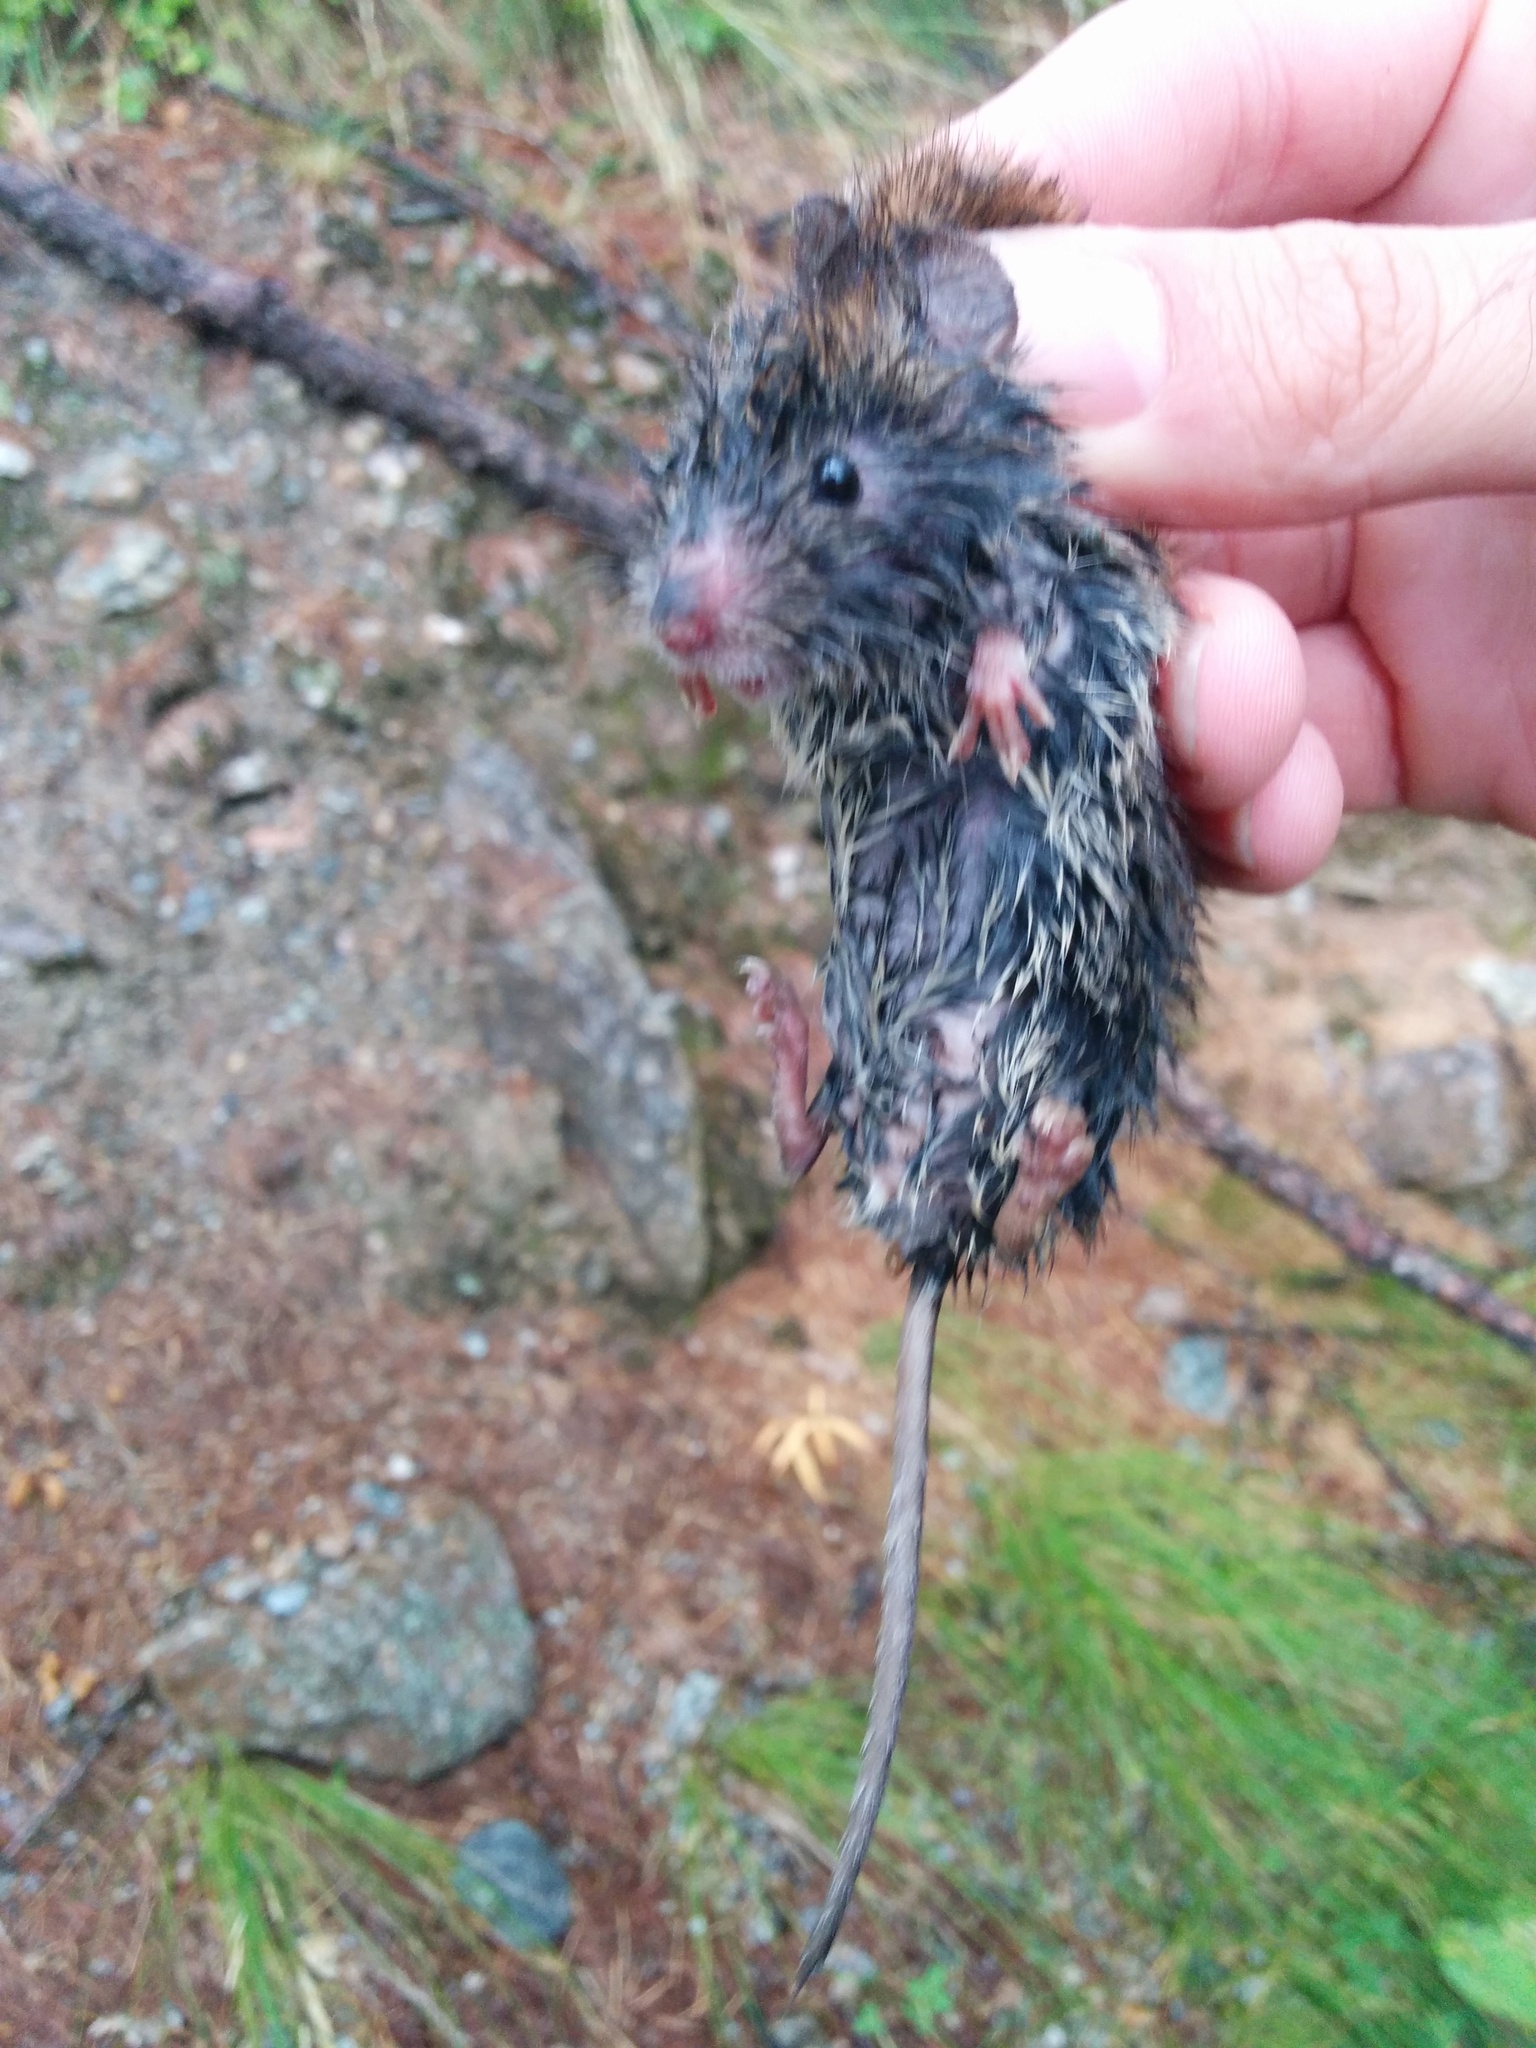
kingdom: Animalia
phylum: Chordata
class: Mammalia
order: Rodentia
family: Cricetidae
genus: Myodes
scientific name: Myodes glareolus
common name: Bank vole
